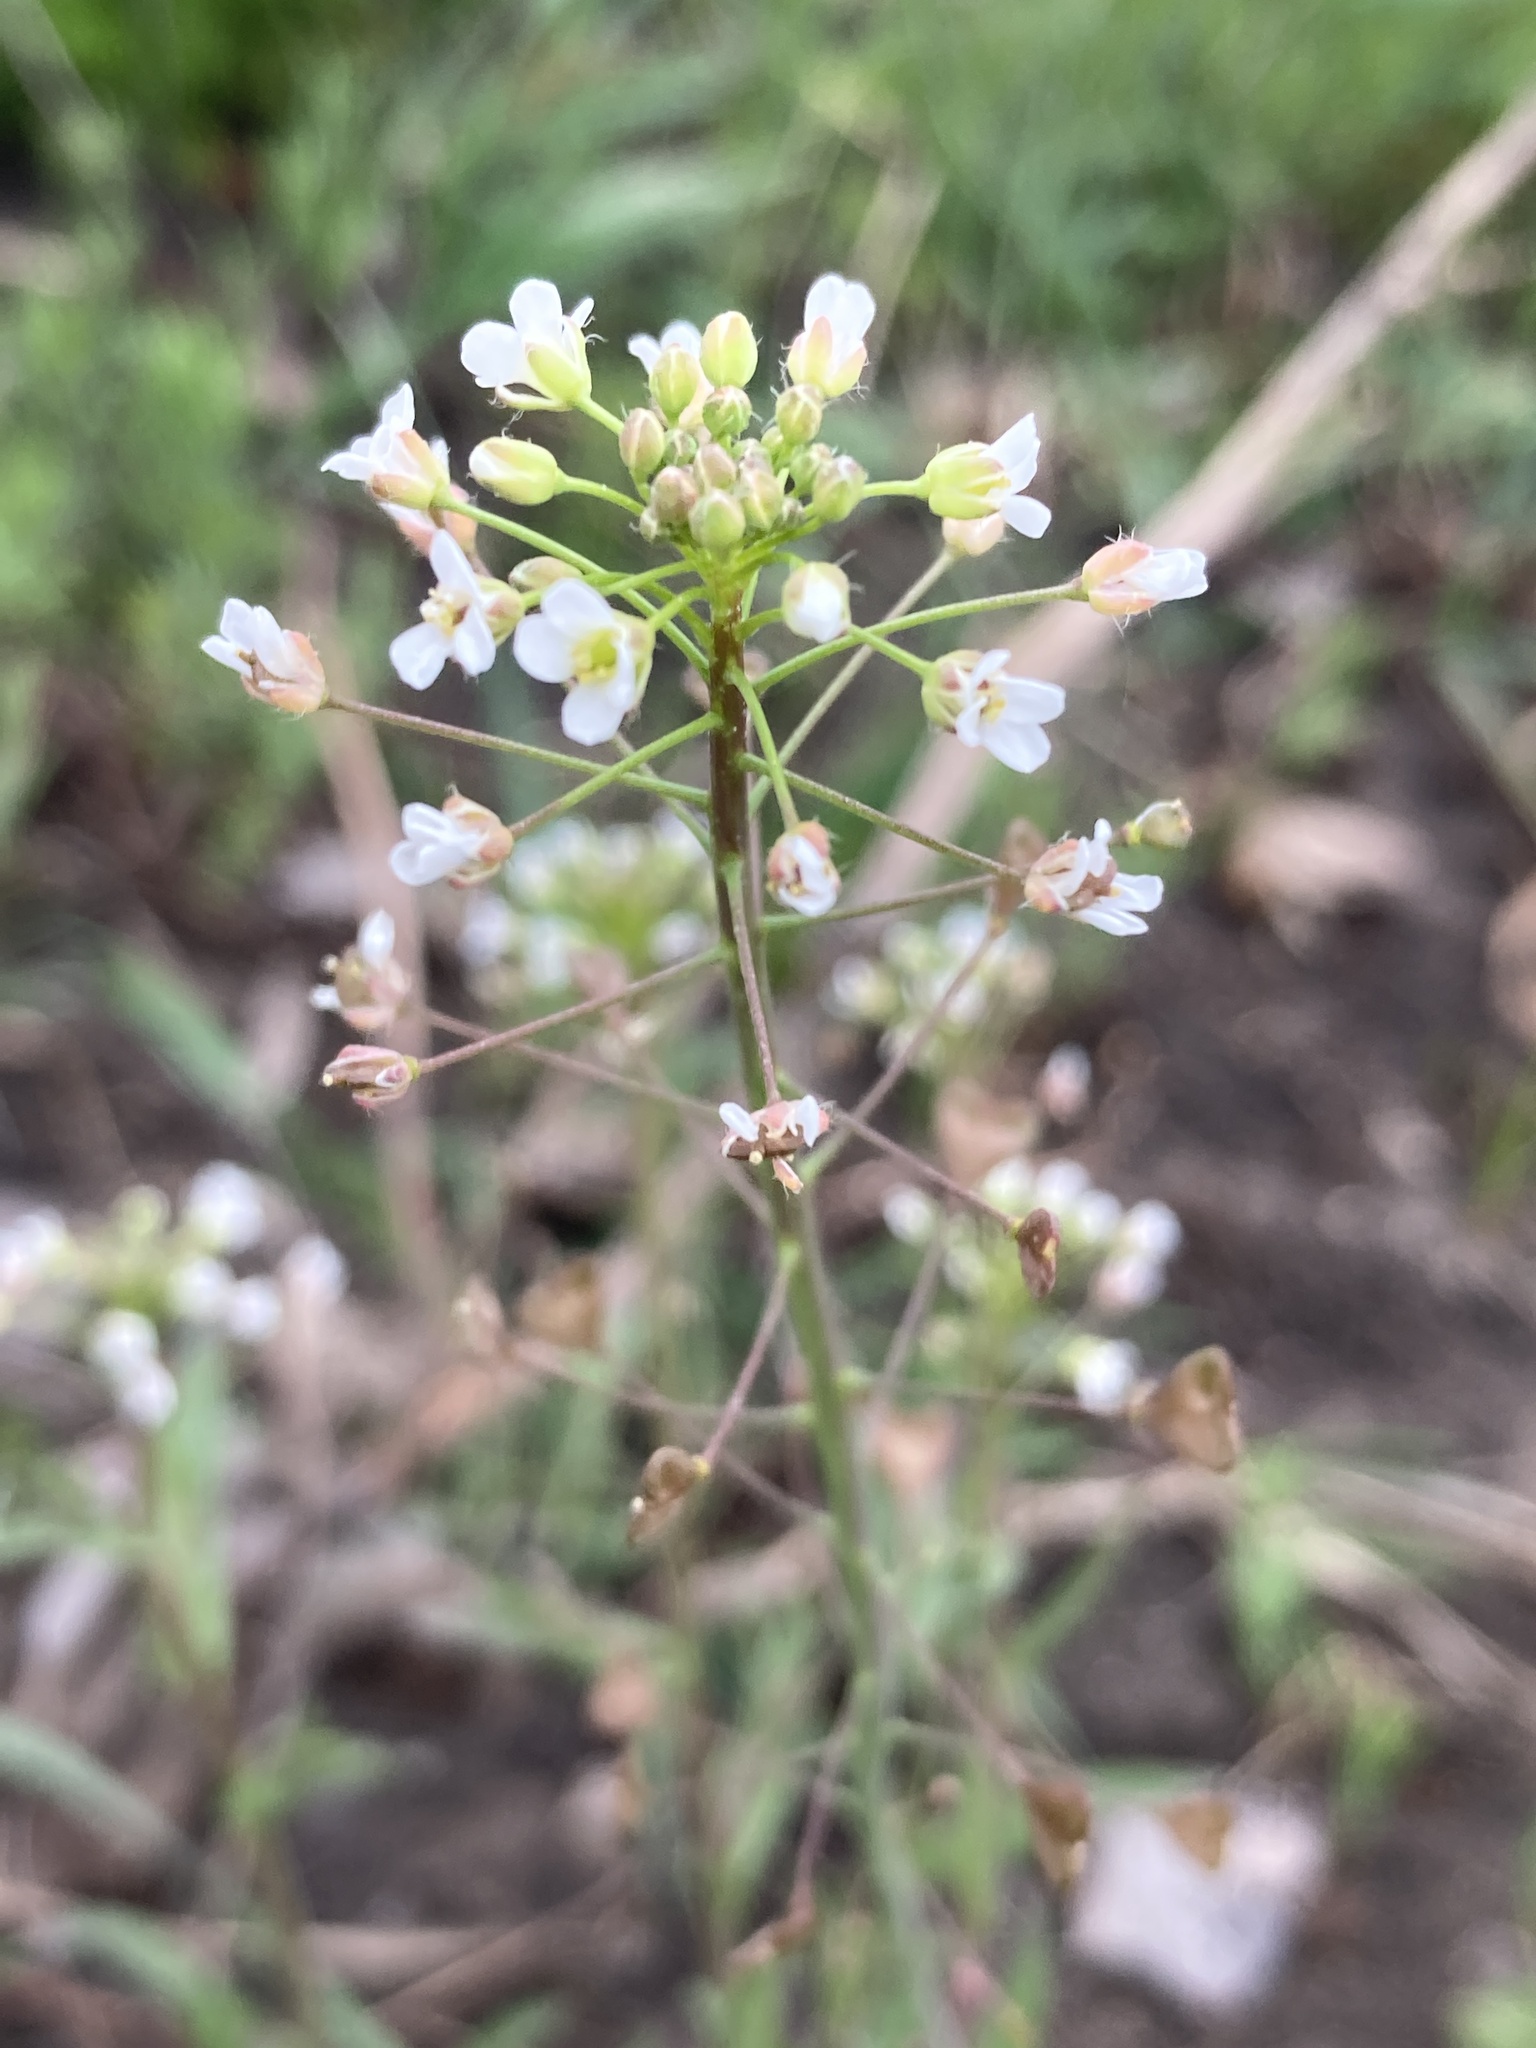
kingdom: Plantae
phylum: Tracheophyta
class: Magnoliopsida
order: Brassicales
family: Brassicaceae
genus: Capsella
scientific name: Capsella bursa-pastoris
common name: Shepherd's purse
